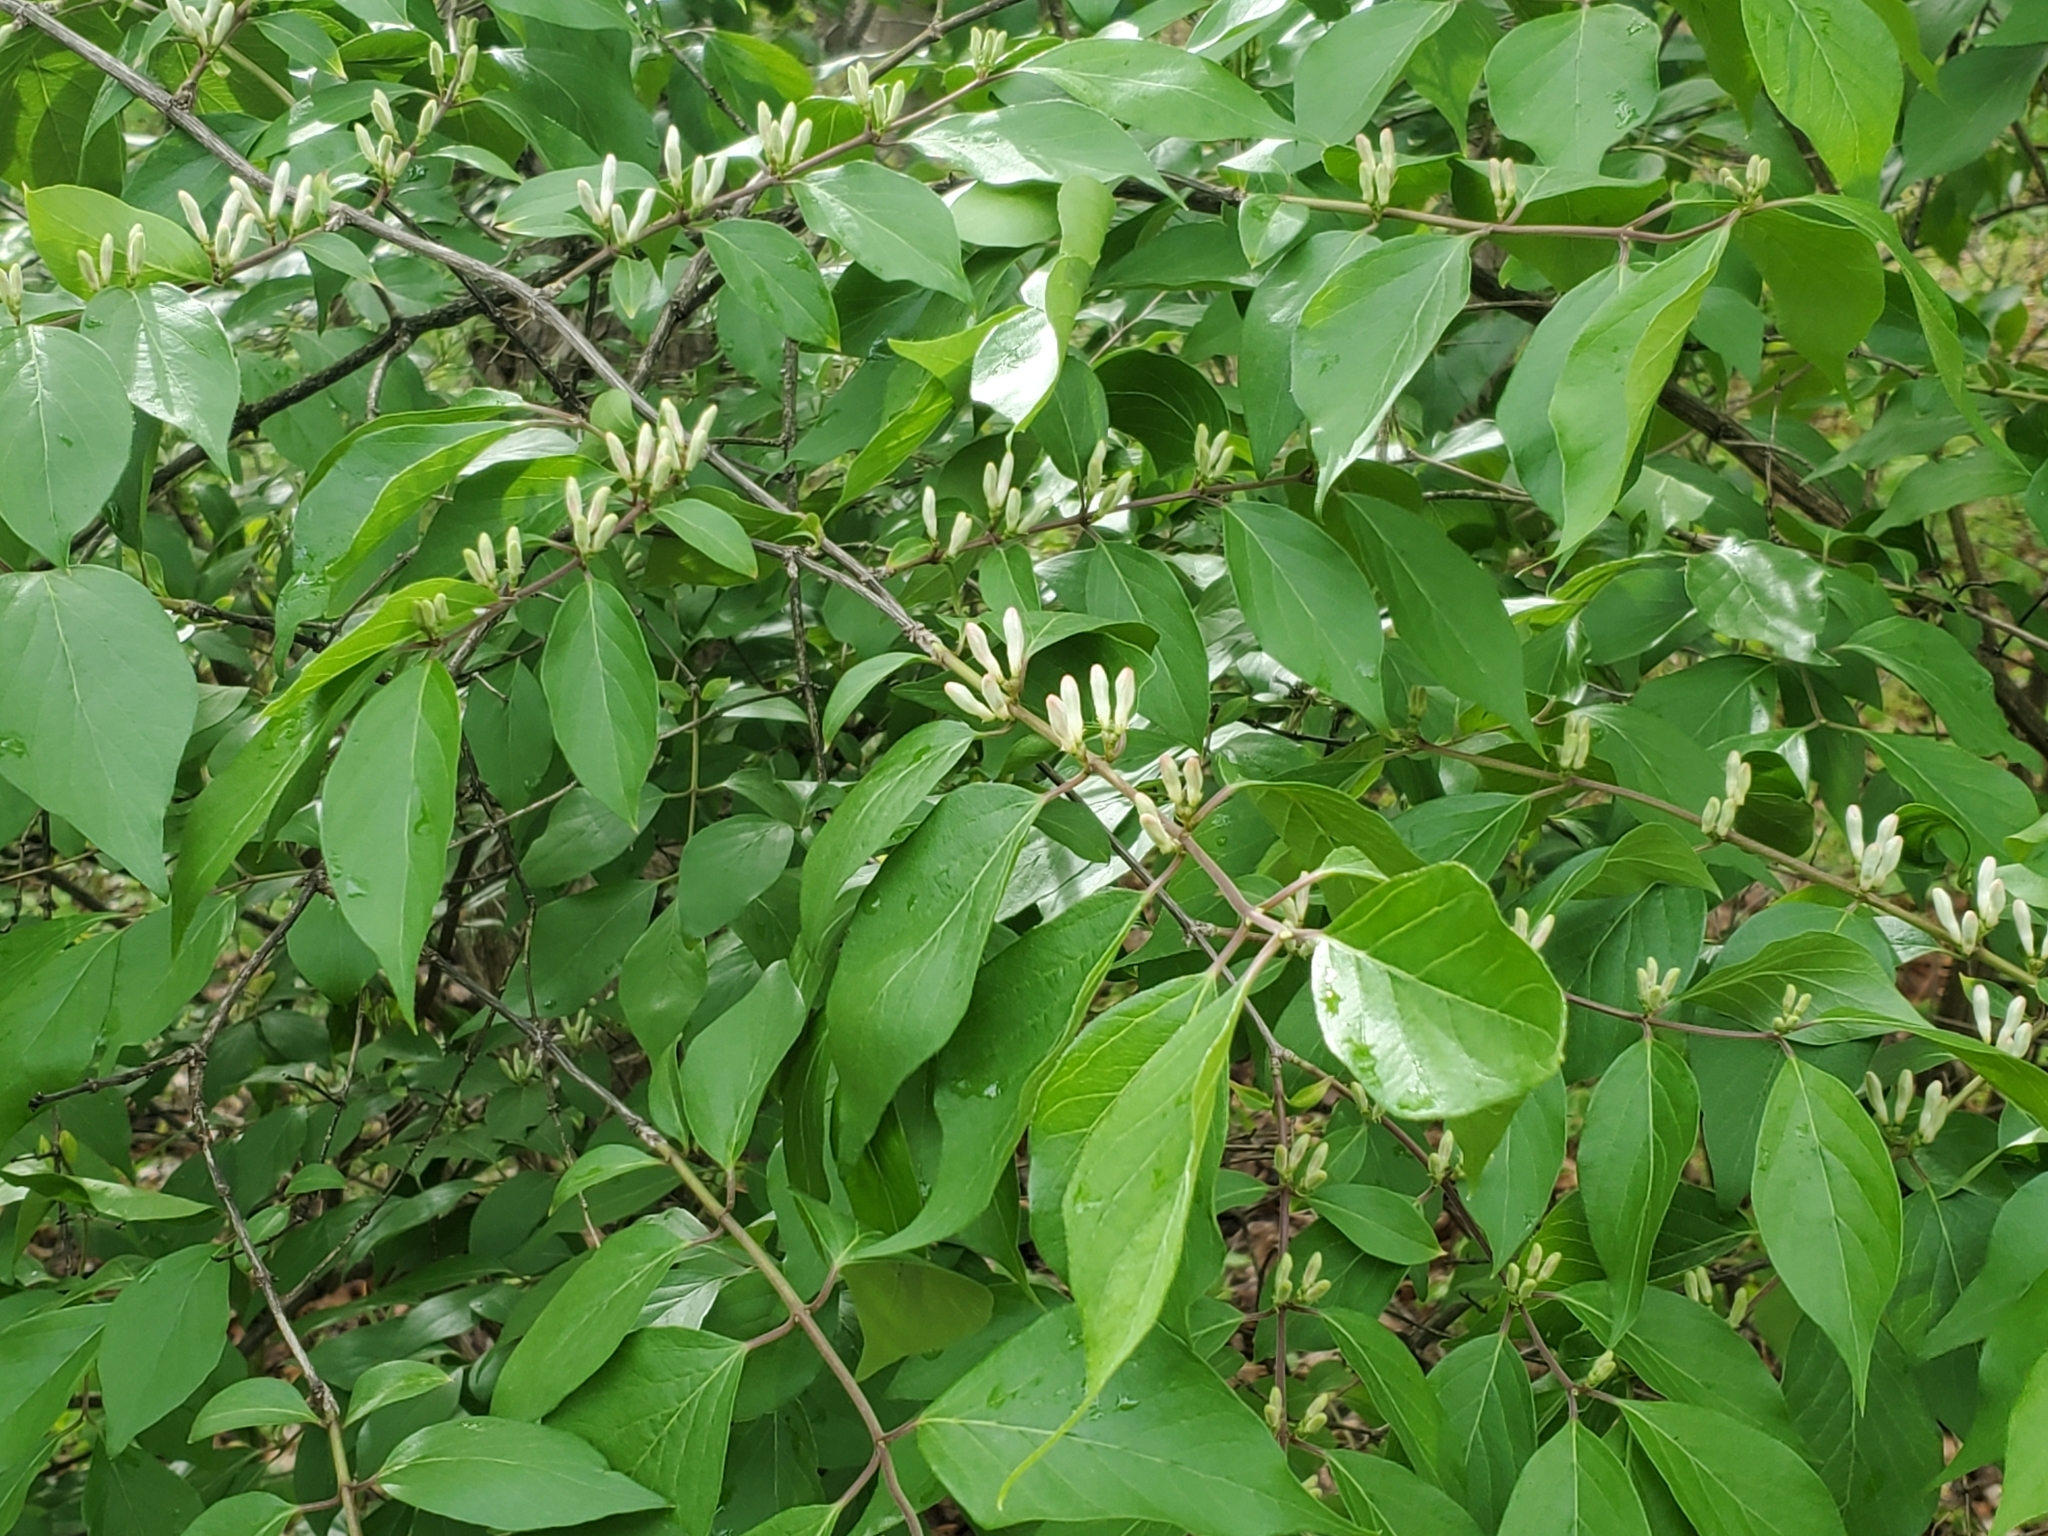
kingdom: Plantae
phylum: Tracheophyta
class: Magnoliopsida
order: Dipsacales
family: Caprifoliaceae
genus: Lonicera
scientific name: Lonicera maackii
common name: Amur honeysuckle
